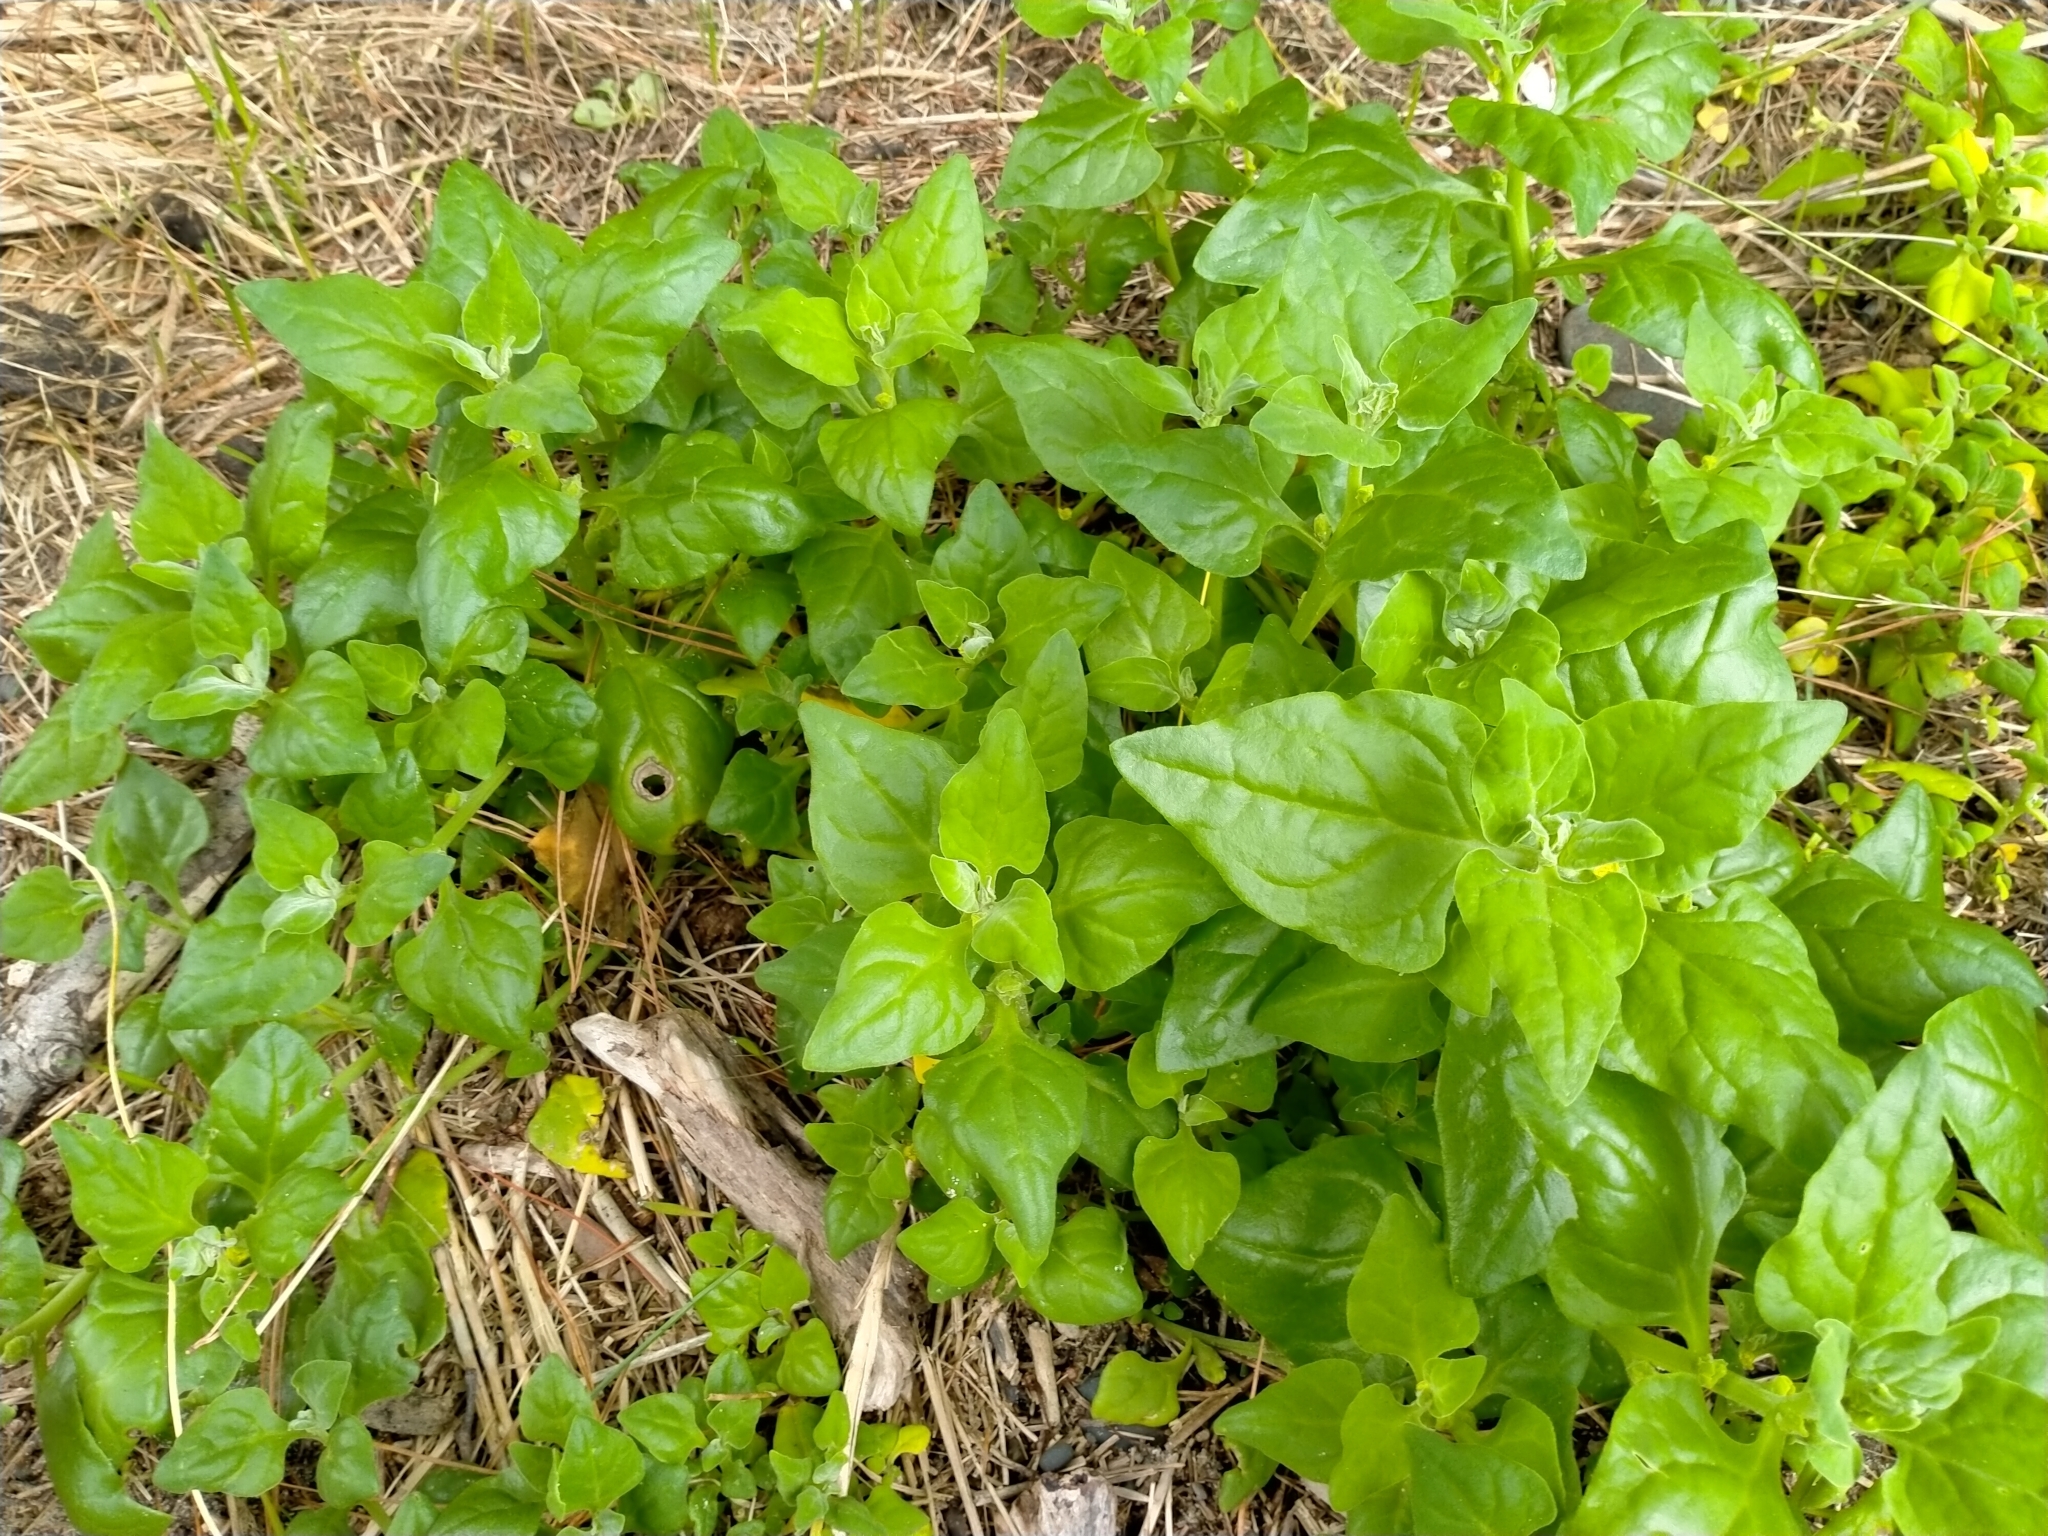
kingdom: Plantae
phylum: Tracheophyta
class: Magnoliopsida
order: Caryophyllales
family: Aizoaceae
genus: Tetragonia
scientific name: Tetragonia tetragonoides
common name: New zealand-spinach
